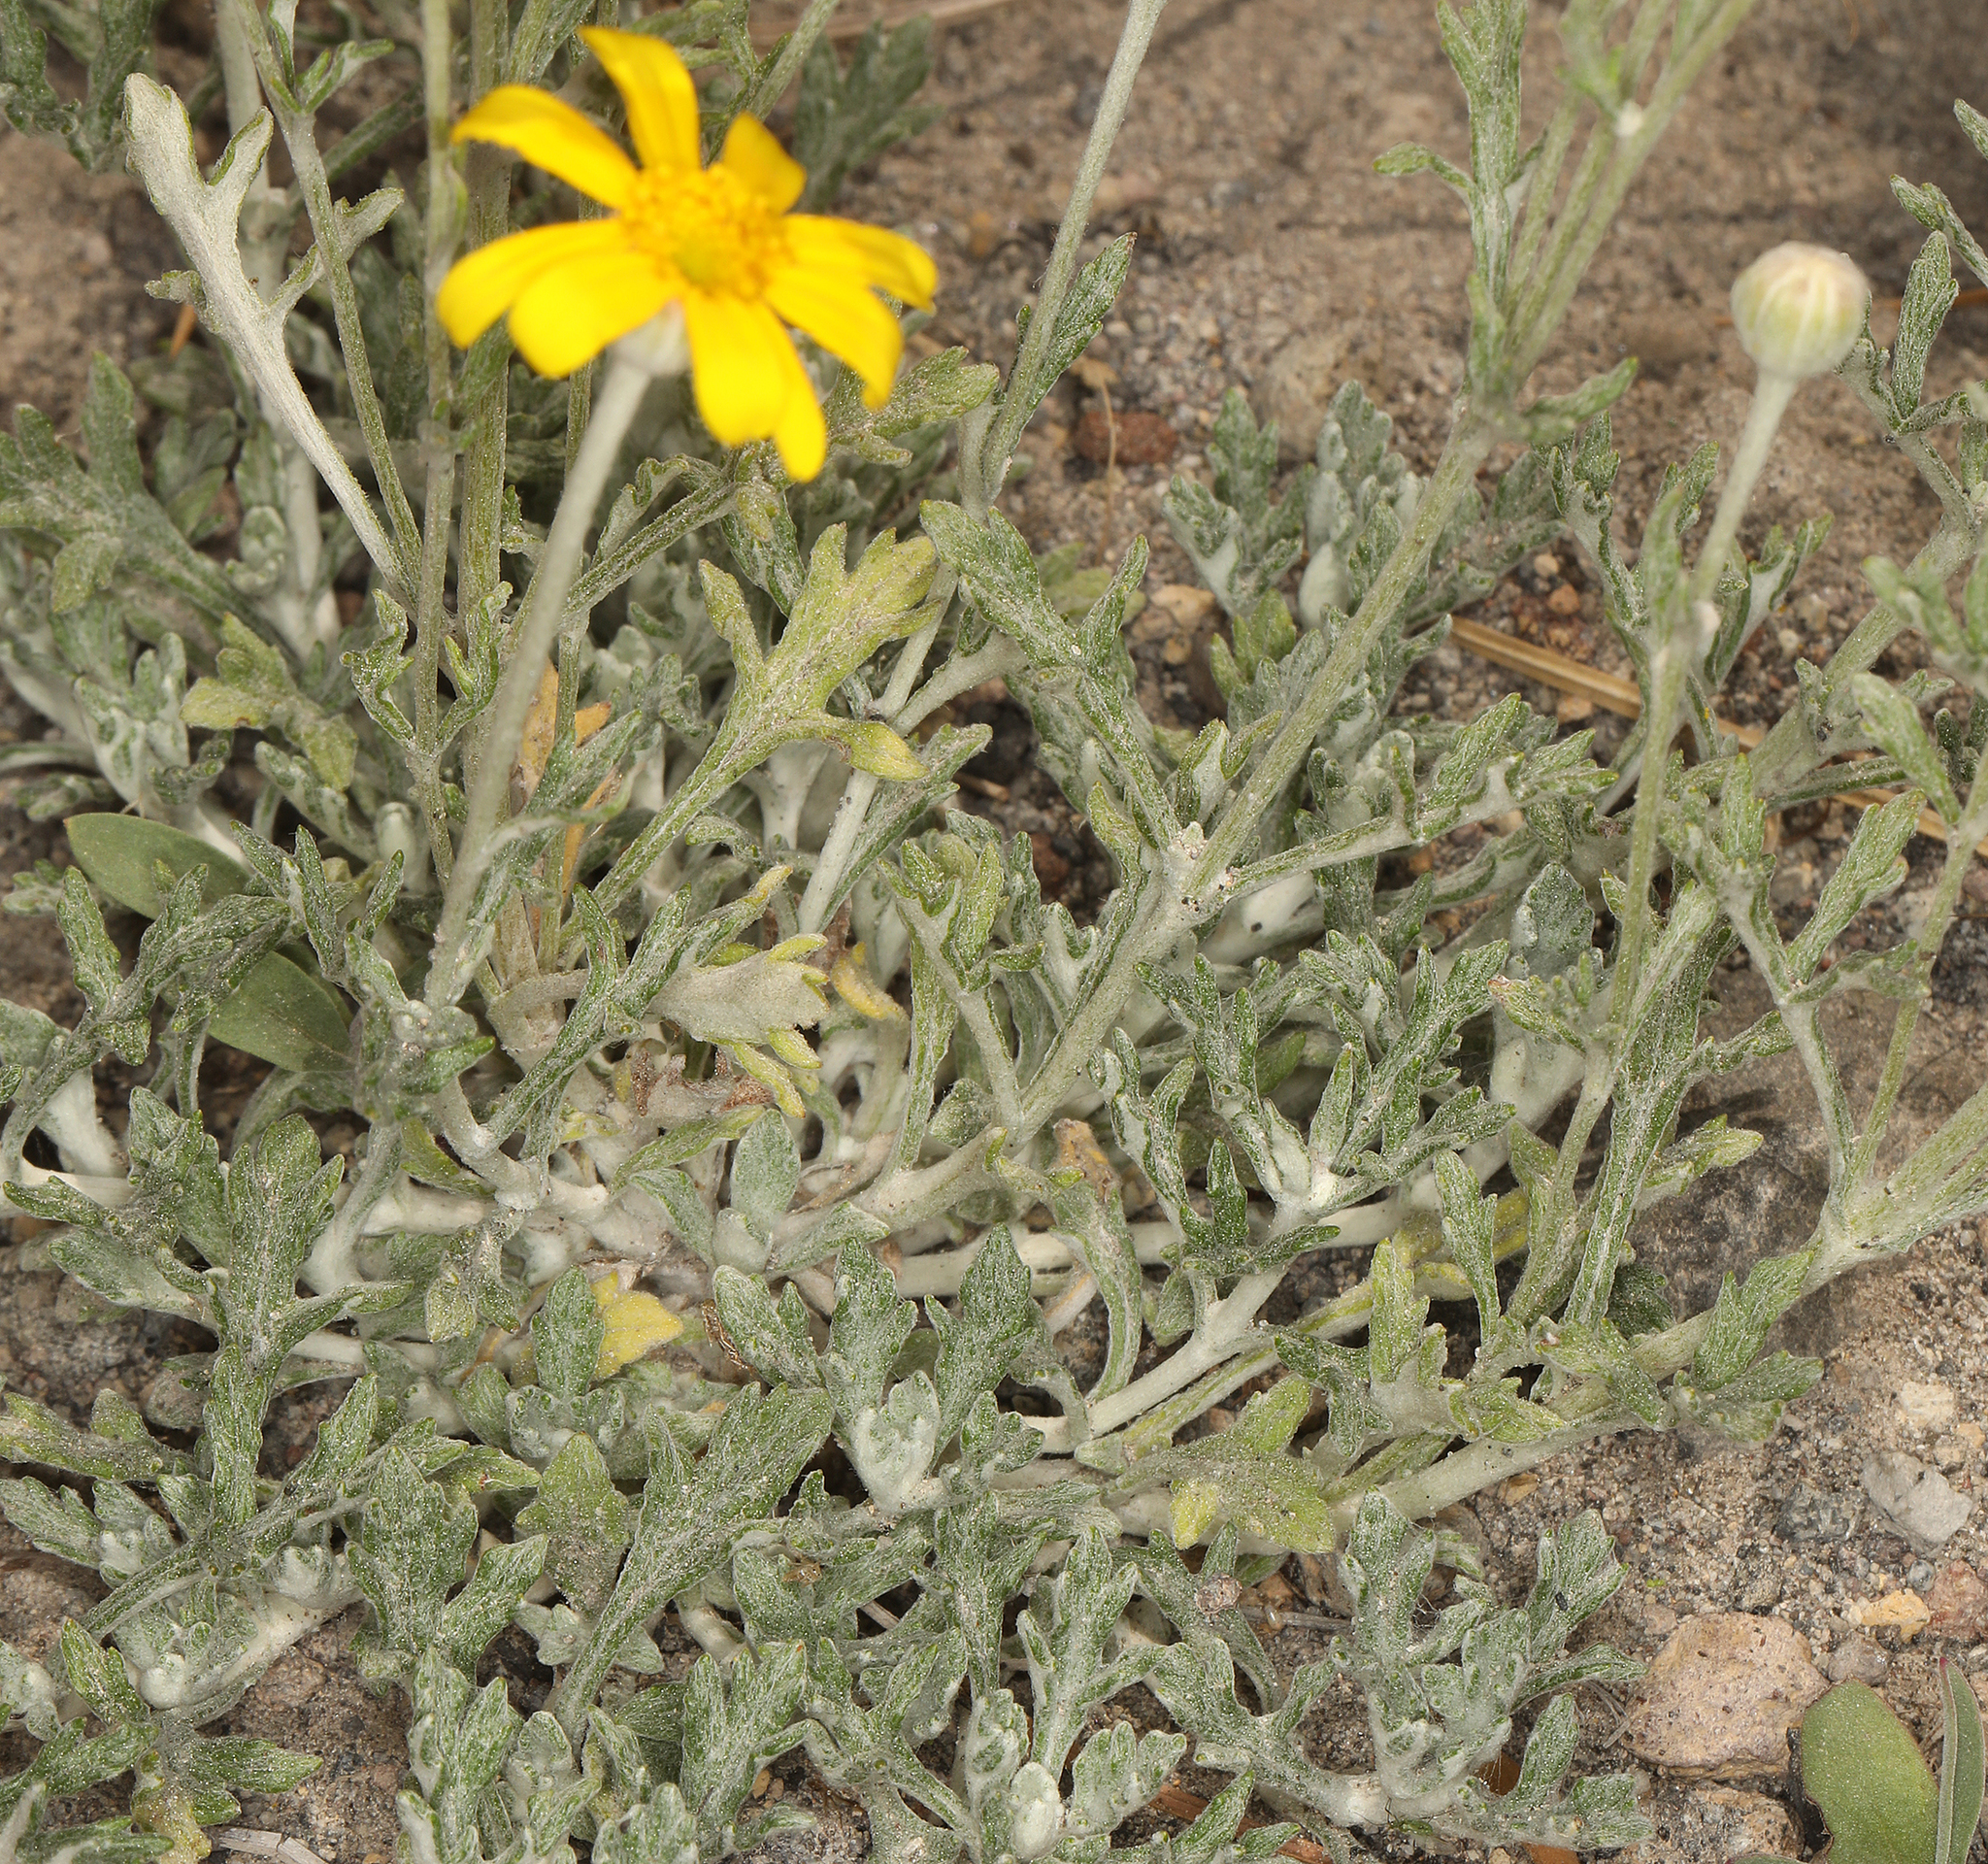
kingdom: Plantae
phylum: Tracheophyta
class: Magnoliopsida
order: Asterales
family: Asteraceae
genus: Eriophyllum
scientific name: Eriophyllum lanatum
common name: Common woolly-sunflower
